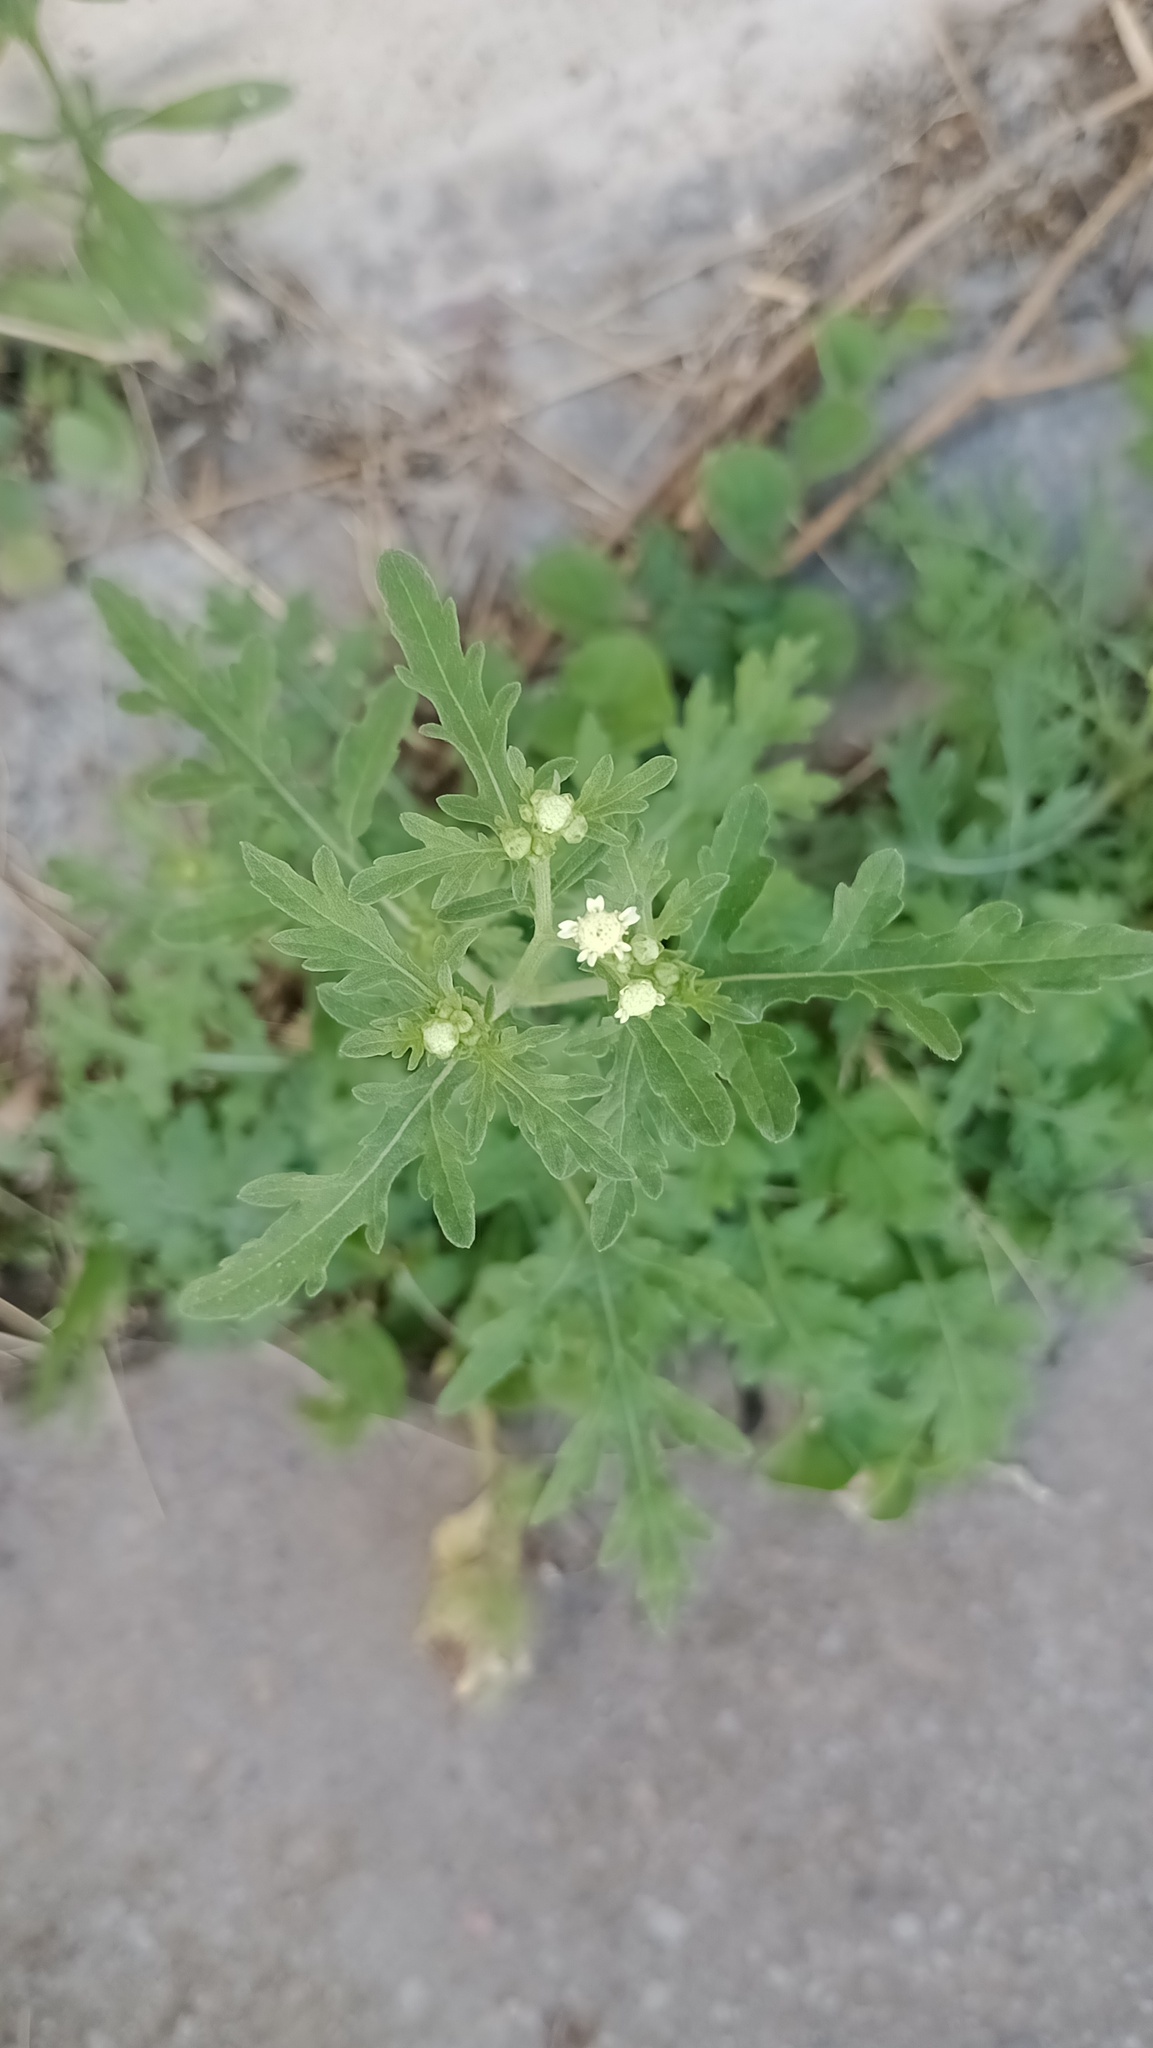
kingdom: Plantae
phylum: Tracheophyta
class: Magnoliopsida
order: Asterales
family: Asteraceae
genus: Parthenium
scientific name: Parthenium hysterophorus
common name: Santa maria feverfew
